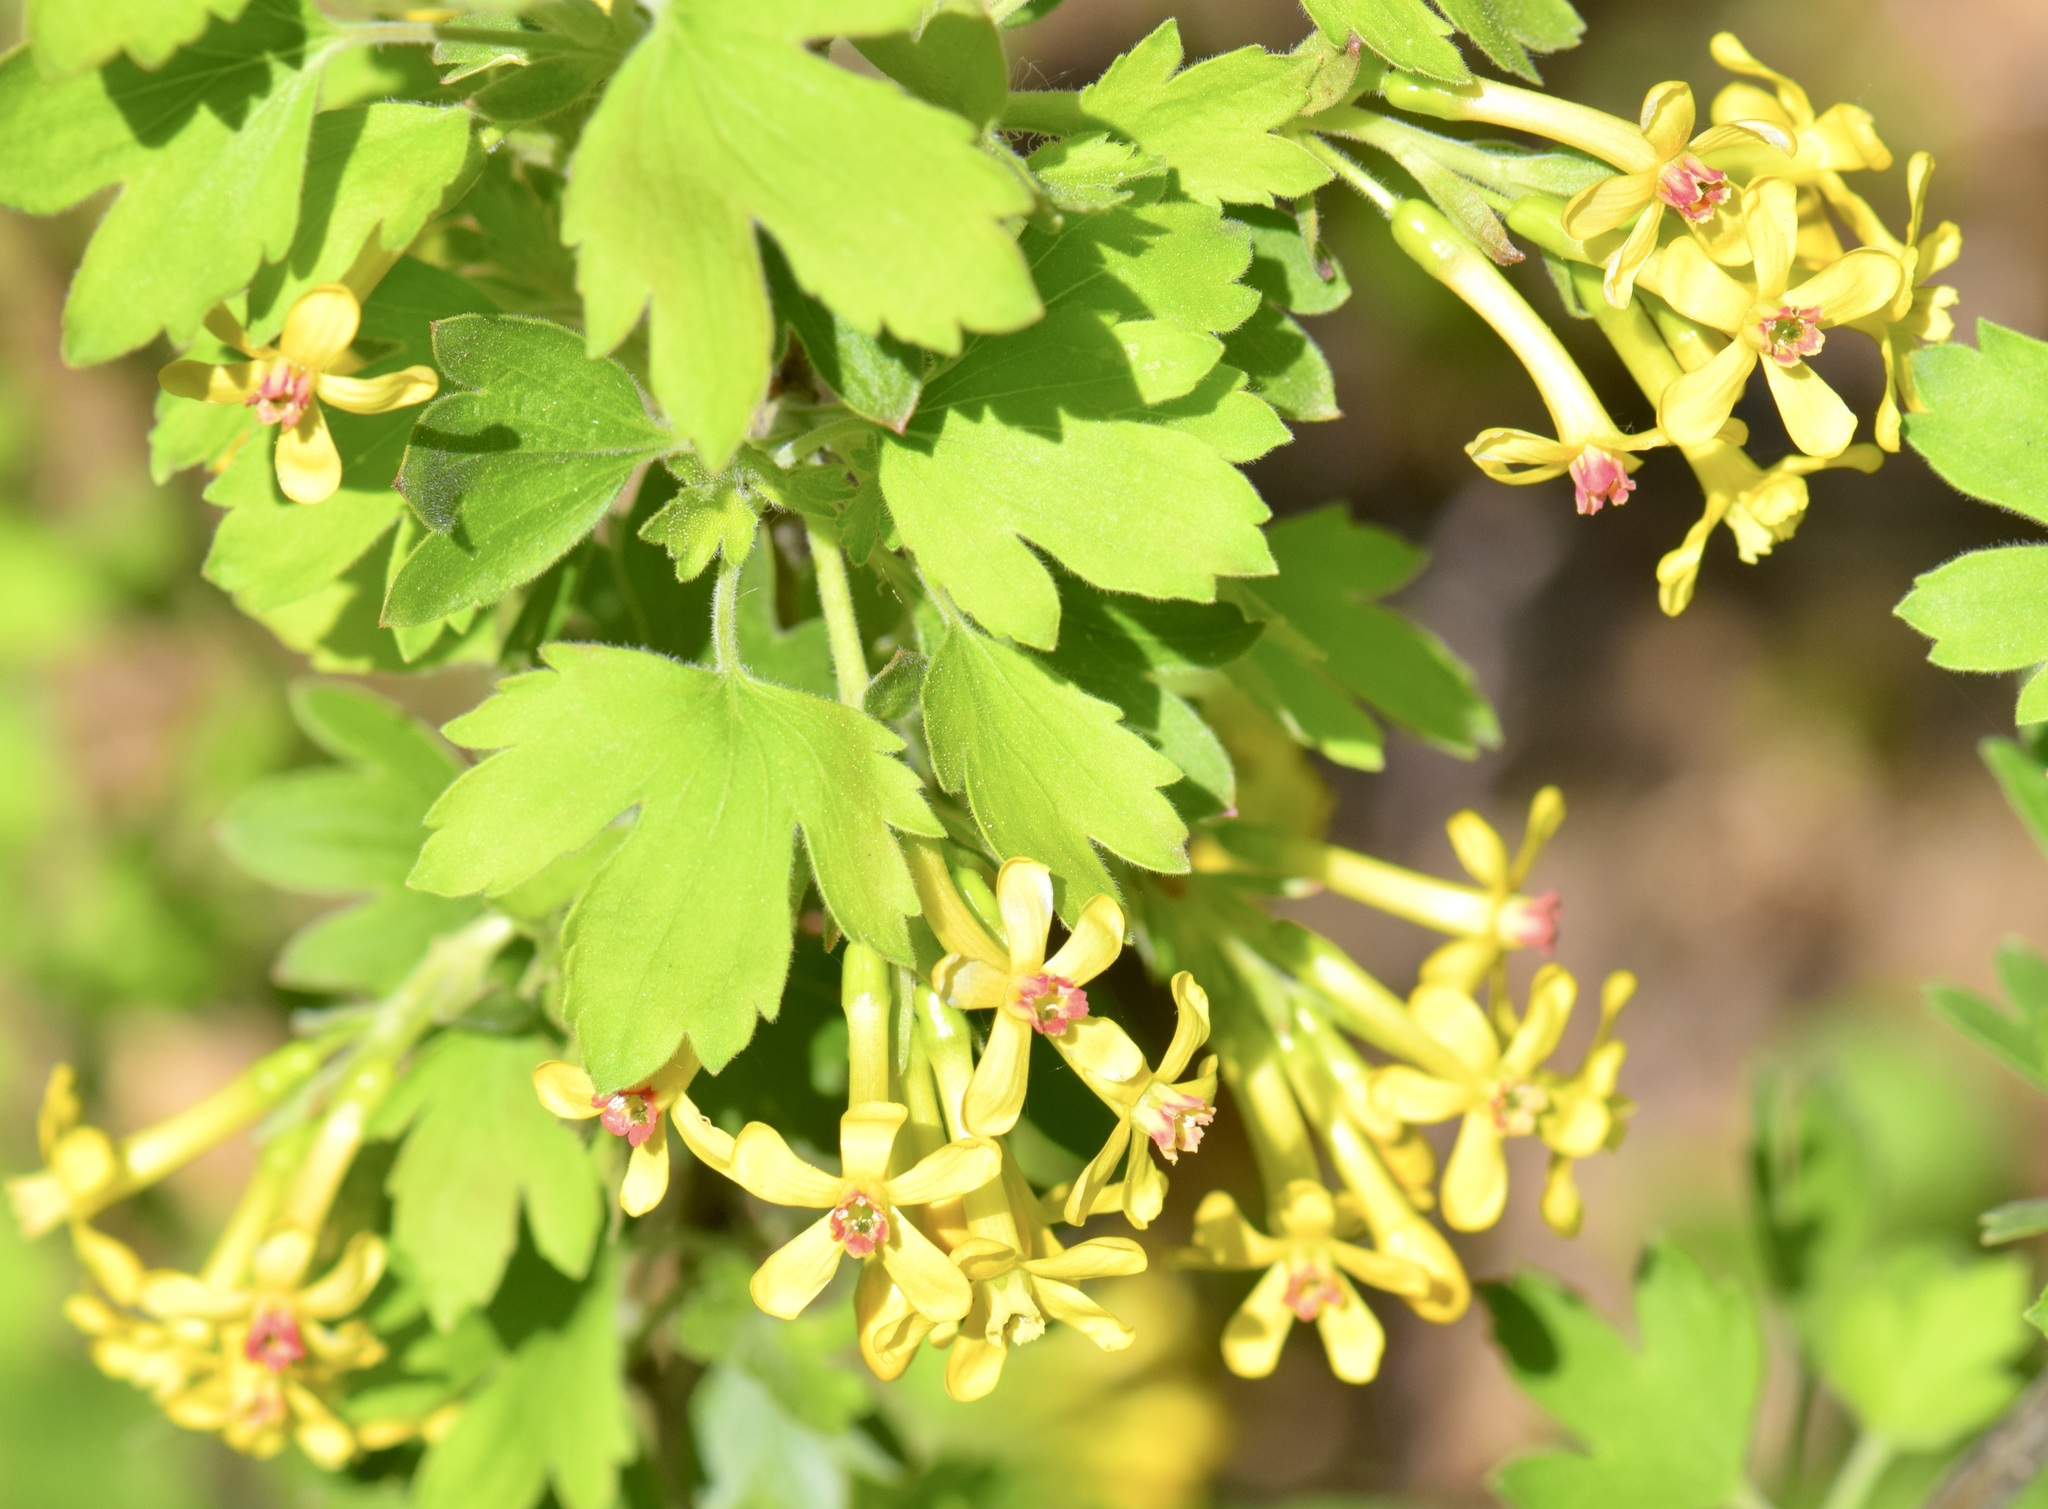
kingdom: Plantae
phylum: Tracheophyta
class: Magnoliopsida
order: Saxifragales
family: Grossulariaceae
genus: Ribes
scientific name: Ribes aureum
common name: Golden currant
